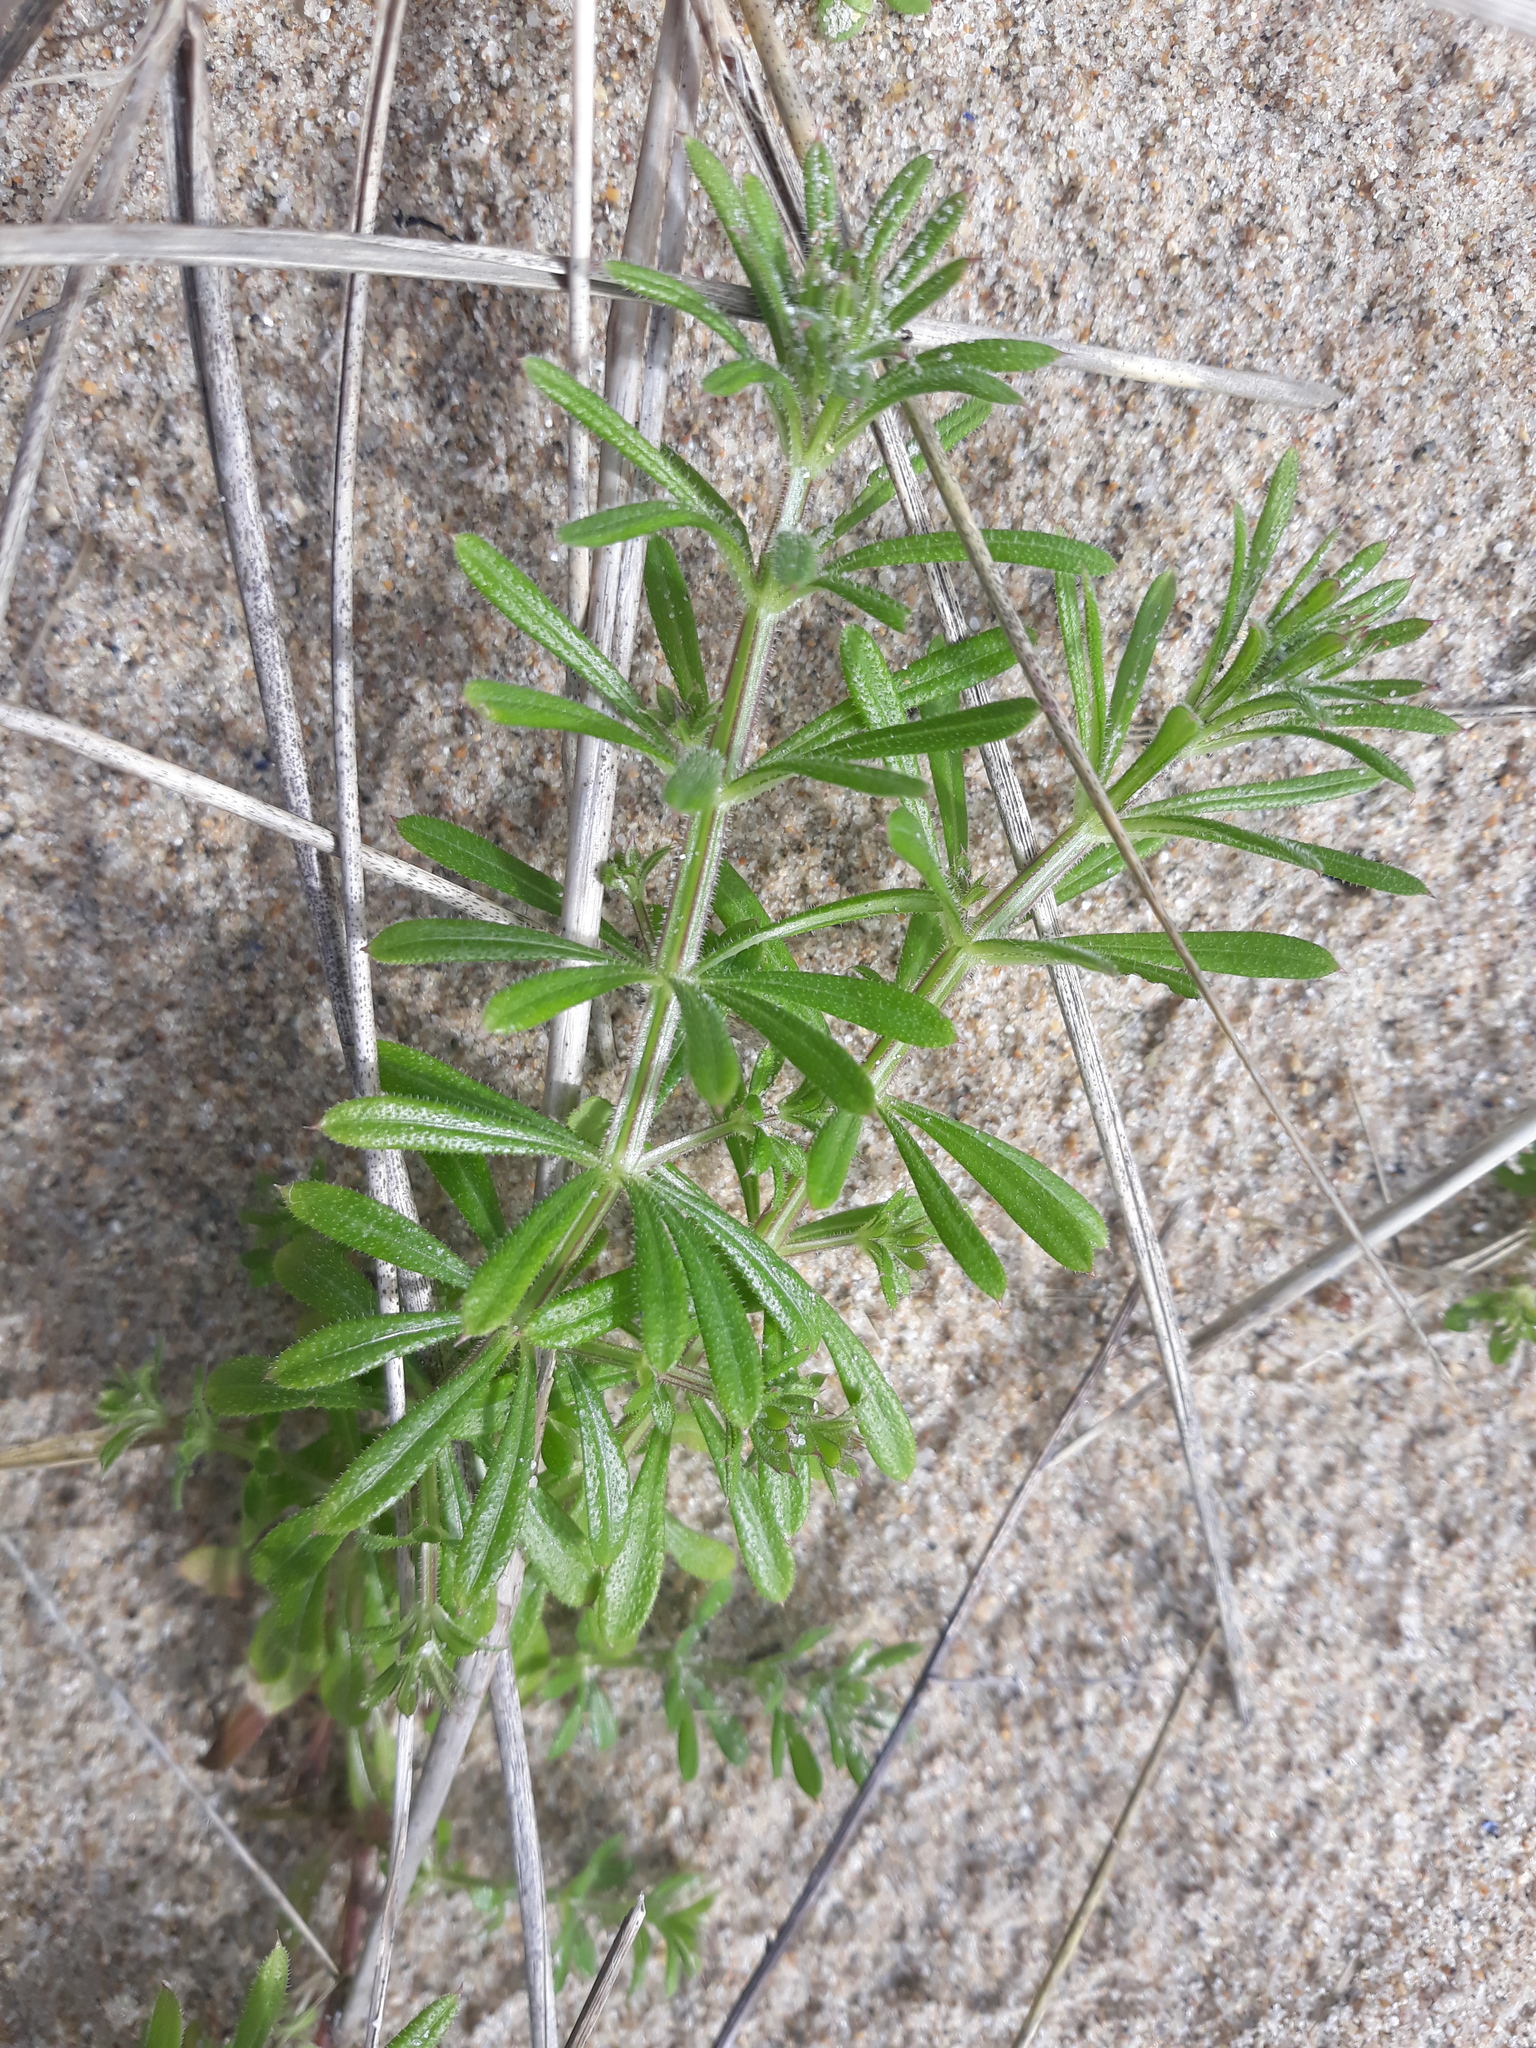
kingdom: Plantae
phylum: Tracheophyta
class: Magnoliopsida
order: Gentianales
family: Rubiaceae
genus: Galium
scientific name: Galium aparine
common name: Cleavers
